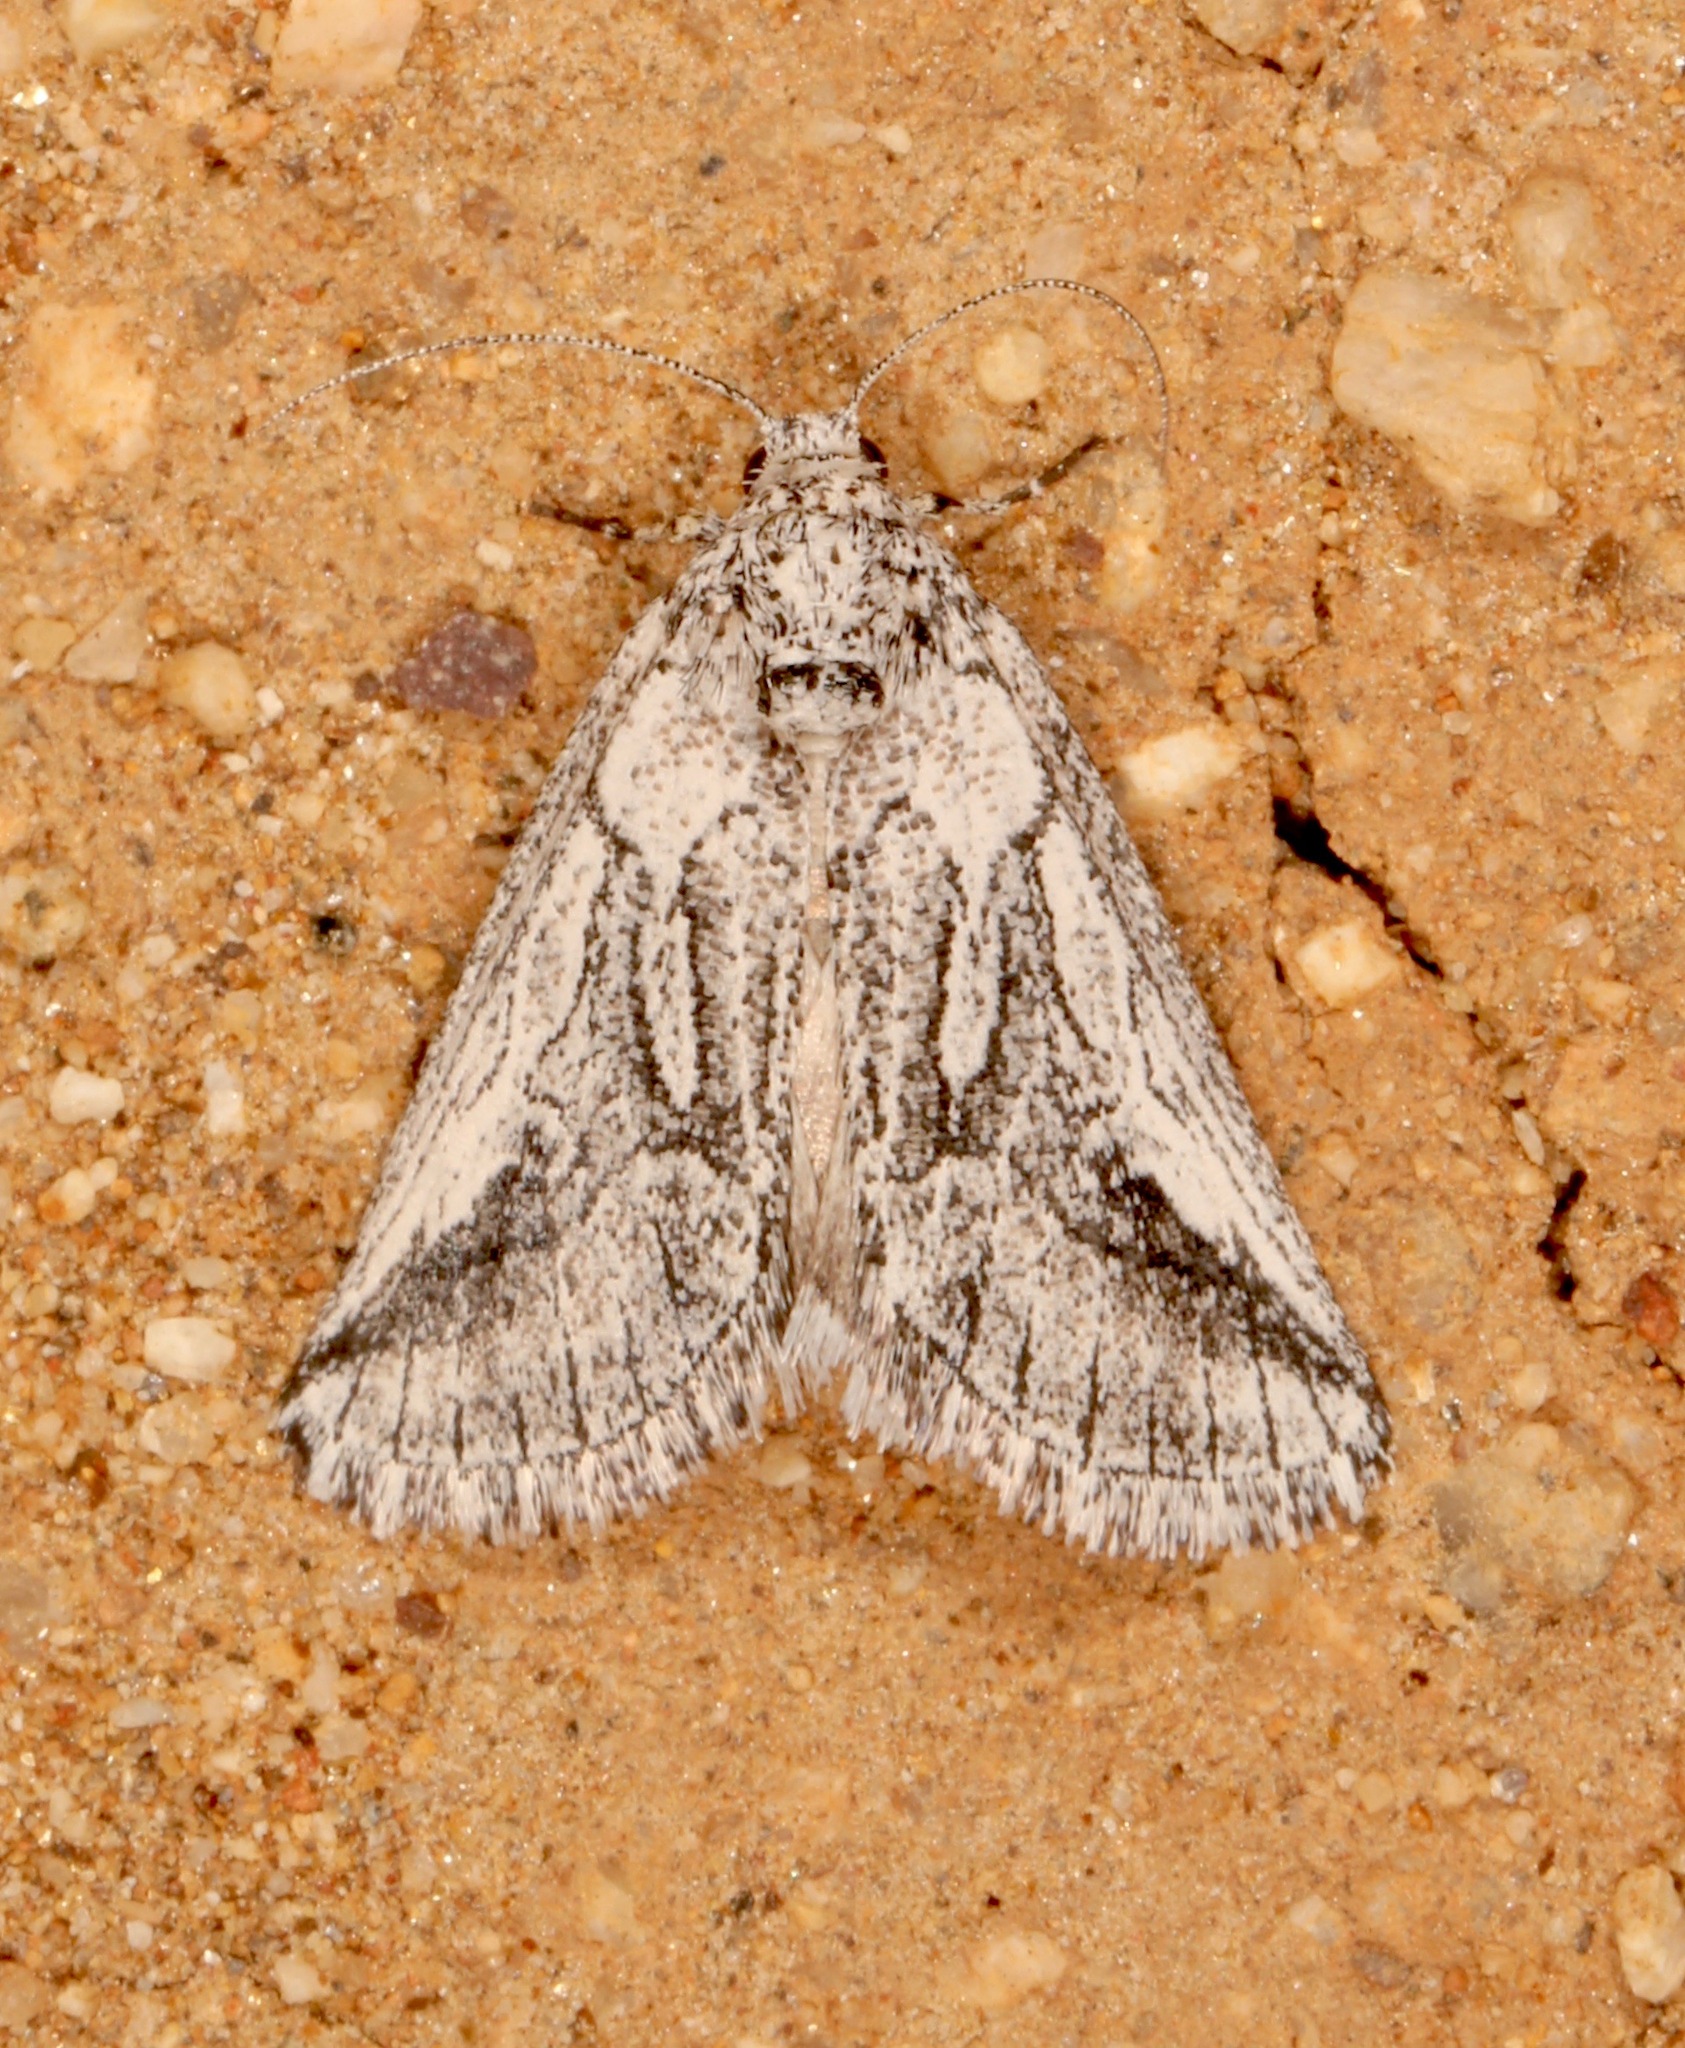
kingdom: Animalia
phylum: Arthropoda
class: Insecta
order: Lepidoptera
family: Noctuidae
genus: Oxycnemis
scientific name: Oxycnemis fusimacula
